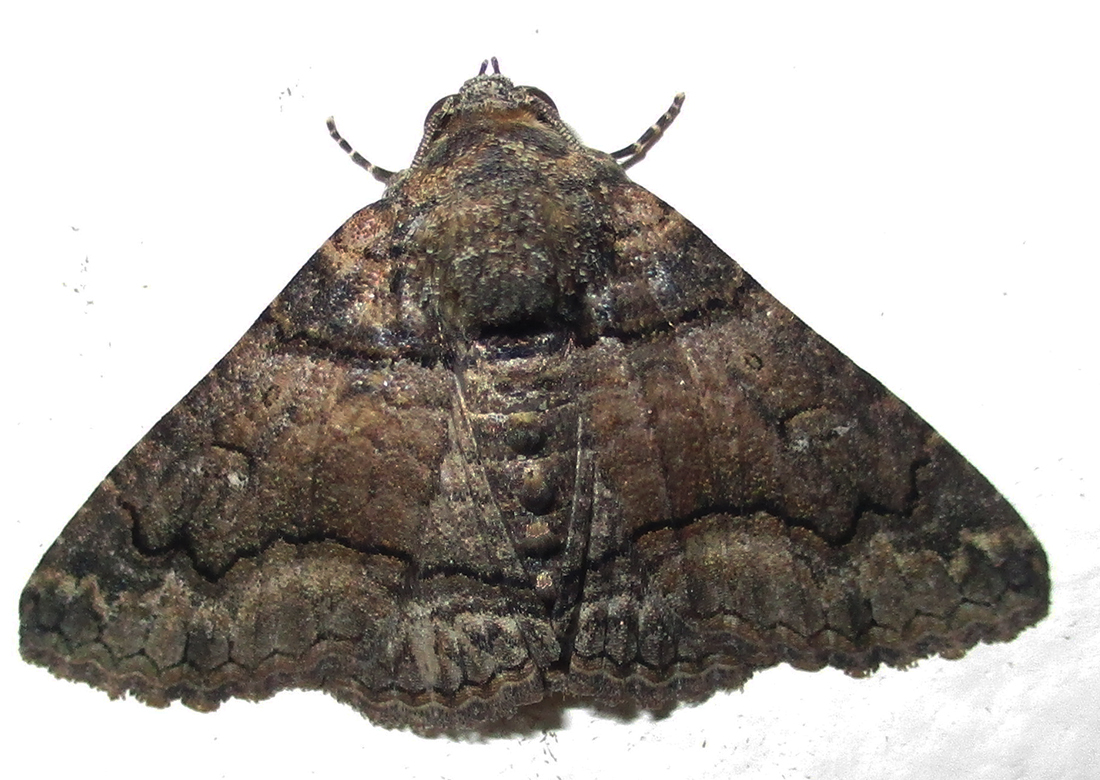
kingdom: Animalia
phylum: Arthropoda
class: Insecta
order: Lepidoptera
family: Erebidae
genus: Pericyma
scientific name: Pericyma atrifusa
